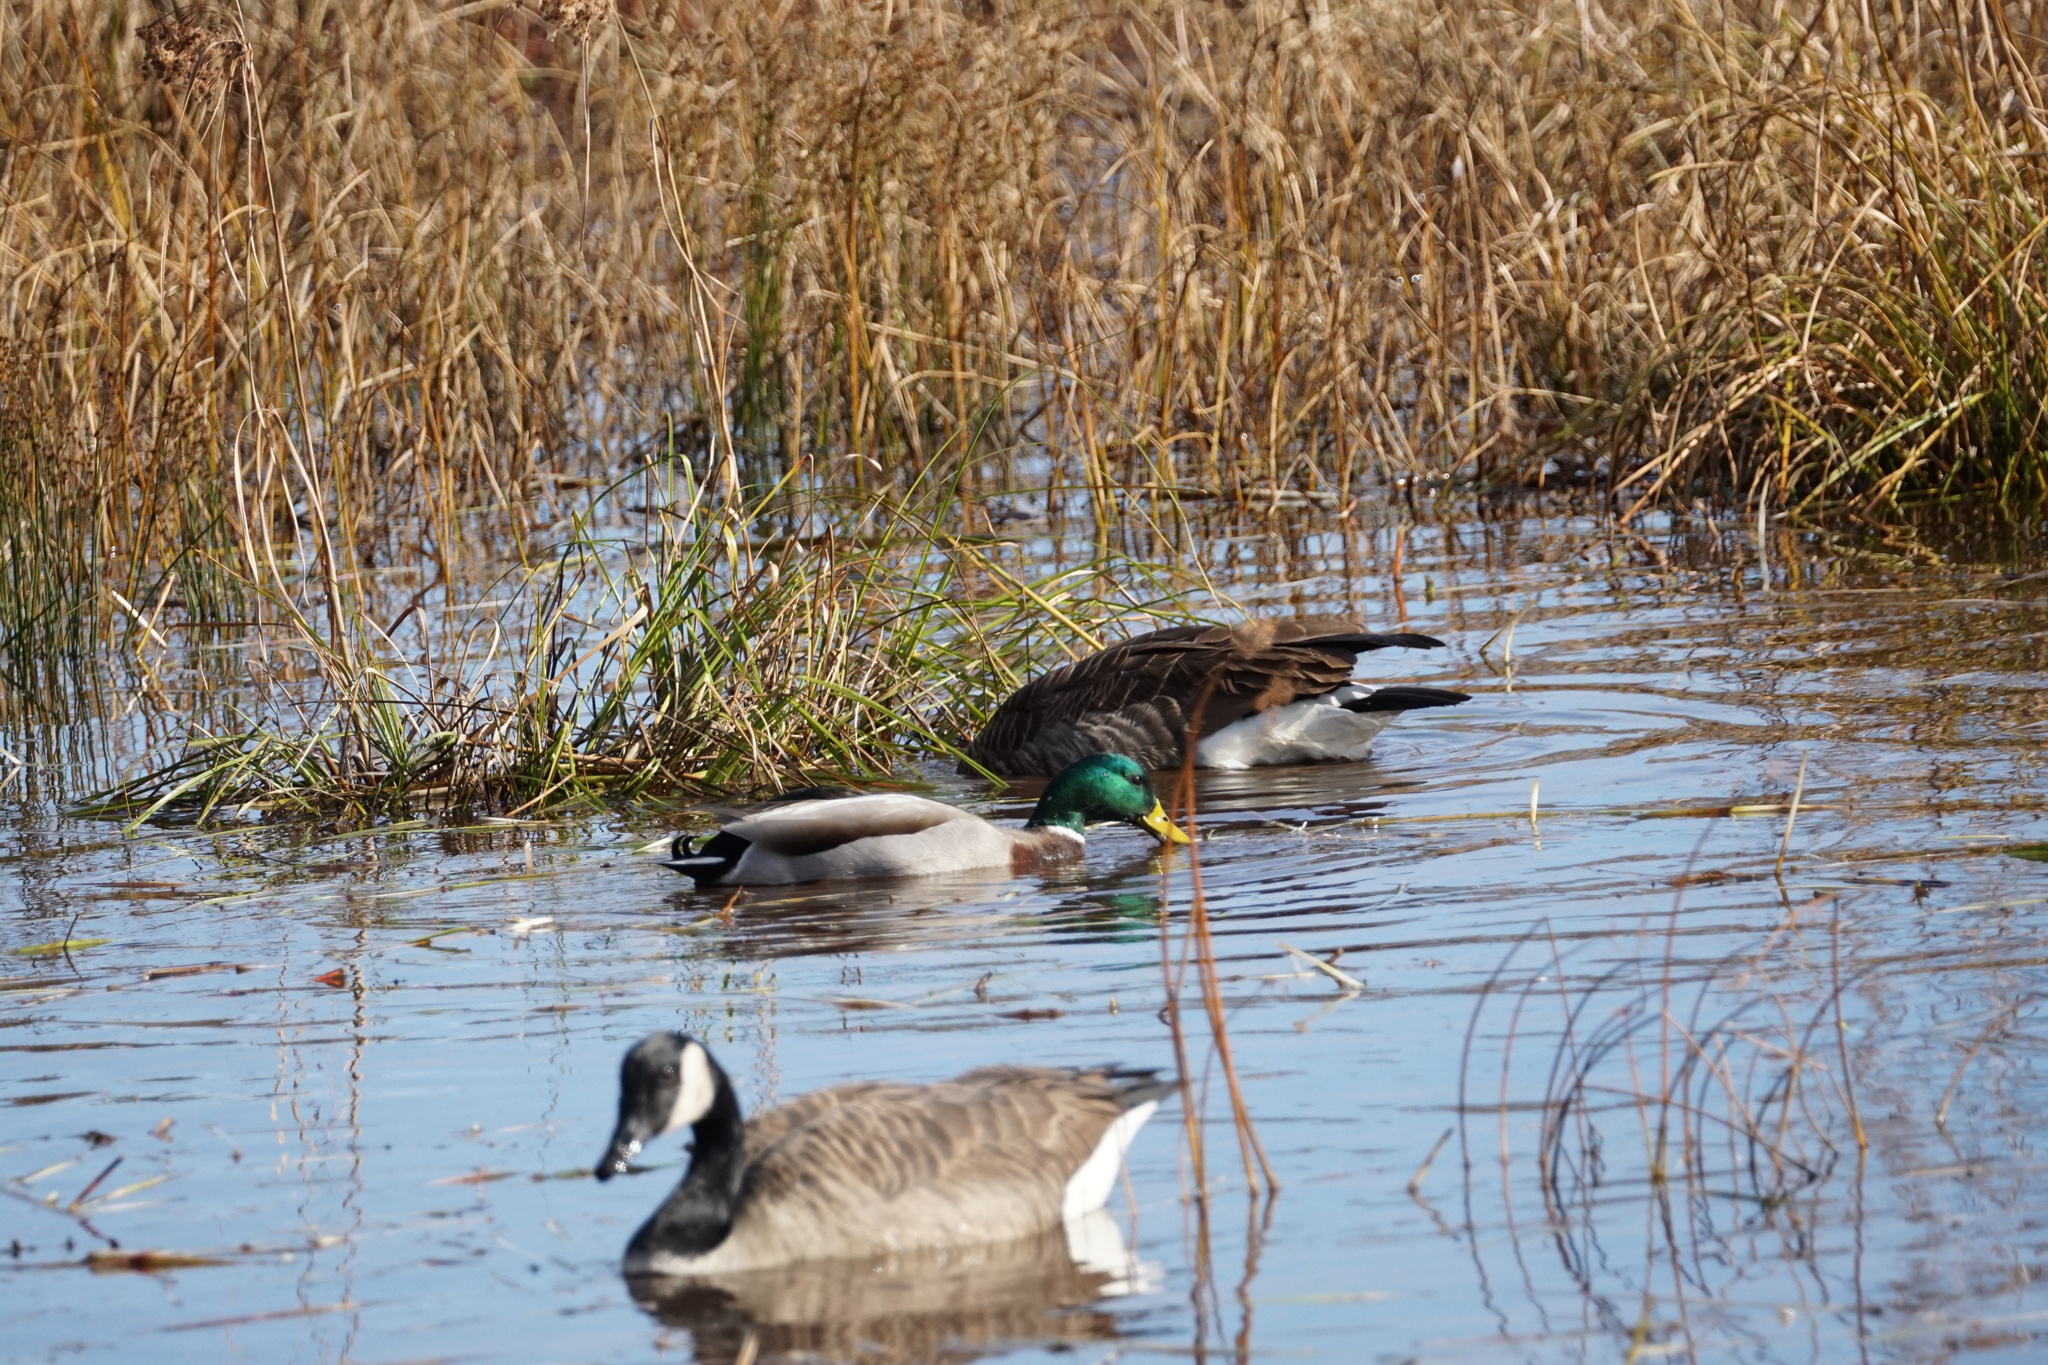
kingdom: Animalia
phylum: Chordata
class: Aves
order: Anseriformes
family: Anatidae
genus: Anas
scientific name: Anas platyrhynchos
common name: Mallard
